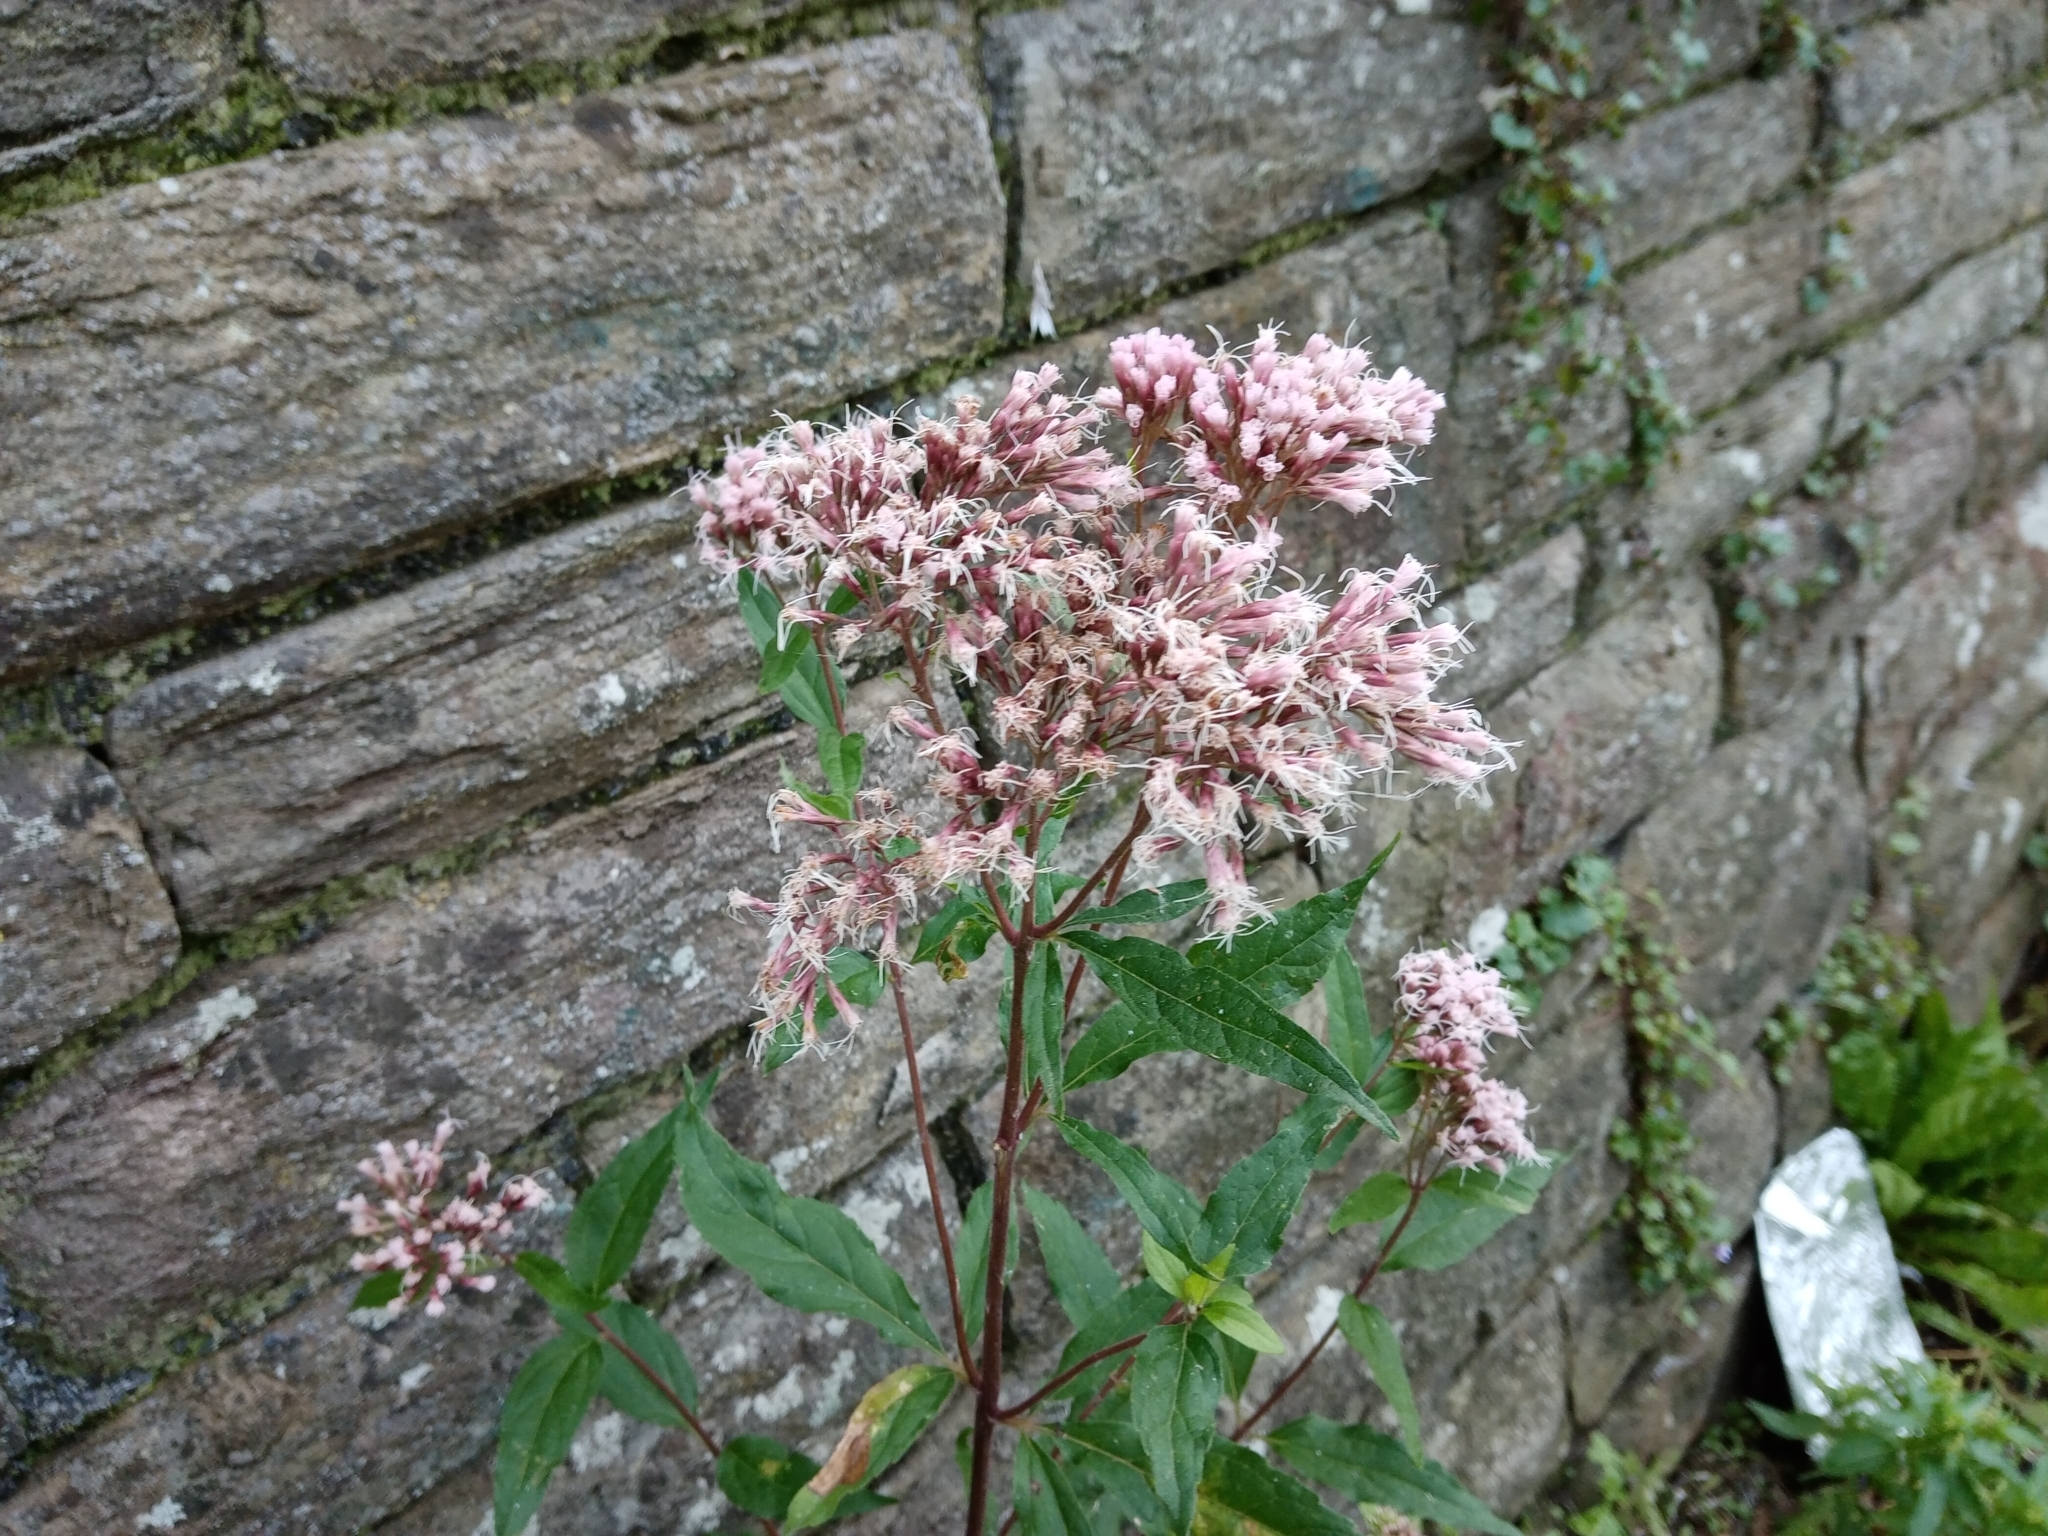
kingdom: Plantae
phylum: Tracheophyta
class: Magnoliopsida
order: Asterales
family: Asteraceae
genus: Eupatorium
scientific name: Eupatorium cannabinum
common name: Hemp-agrimony
